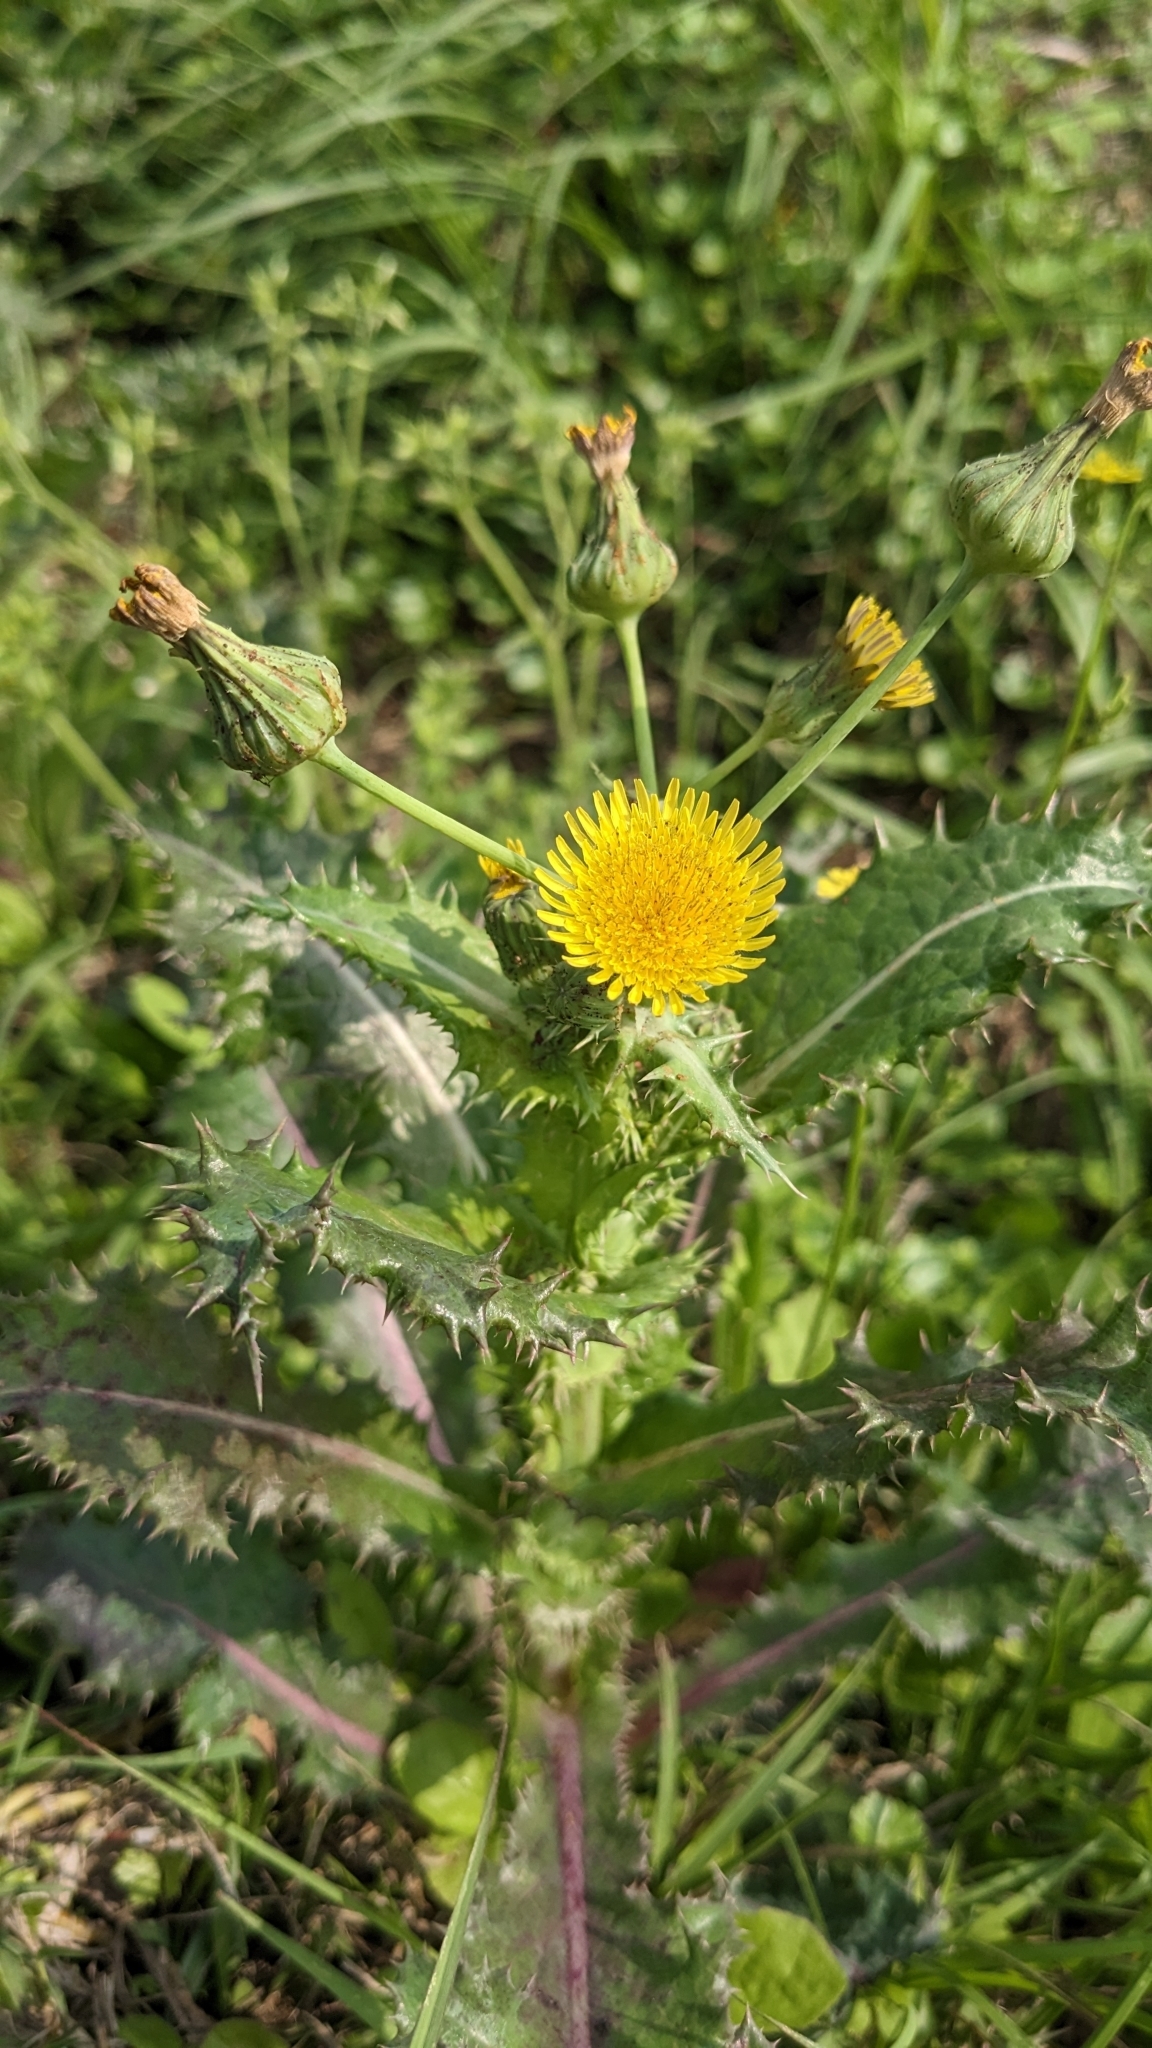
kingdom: Plantae
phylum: Tracheophyta
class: Magnoliopsida
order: Asterales
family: Asteraceae
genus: Sonchus
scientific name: Sonchus asper
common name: Prickly sow-thistle
